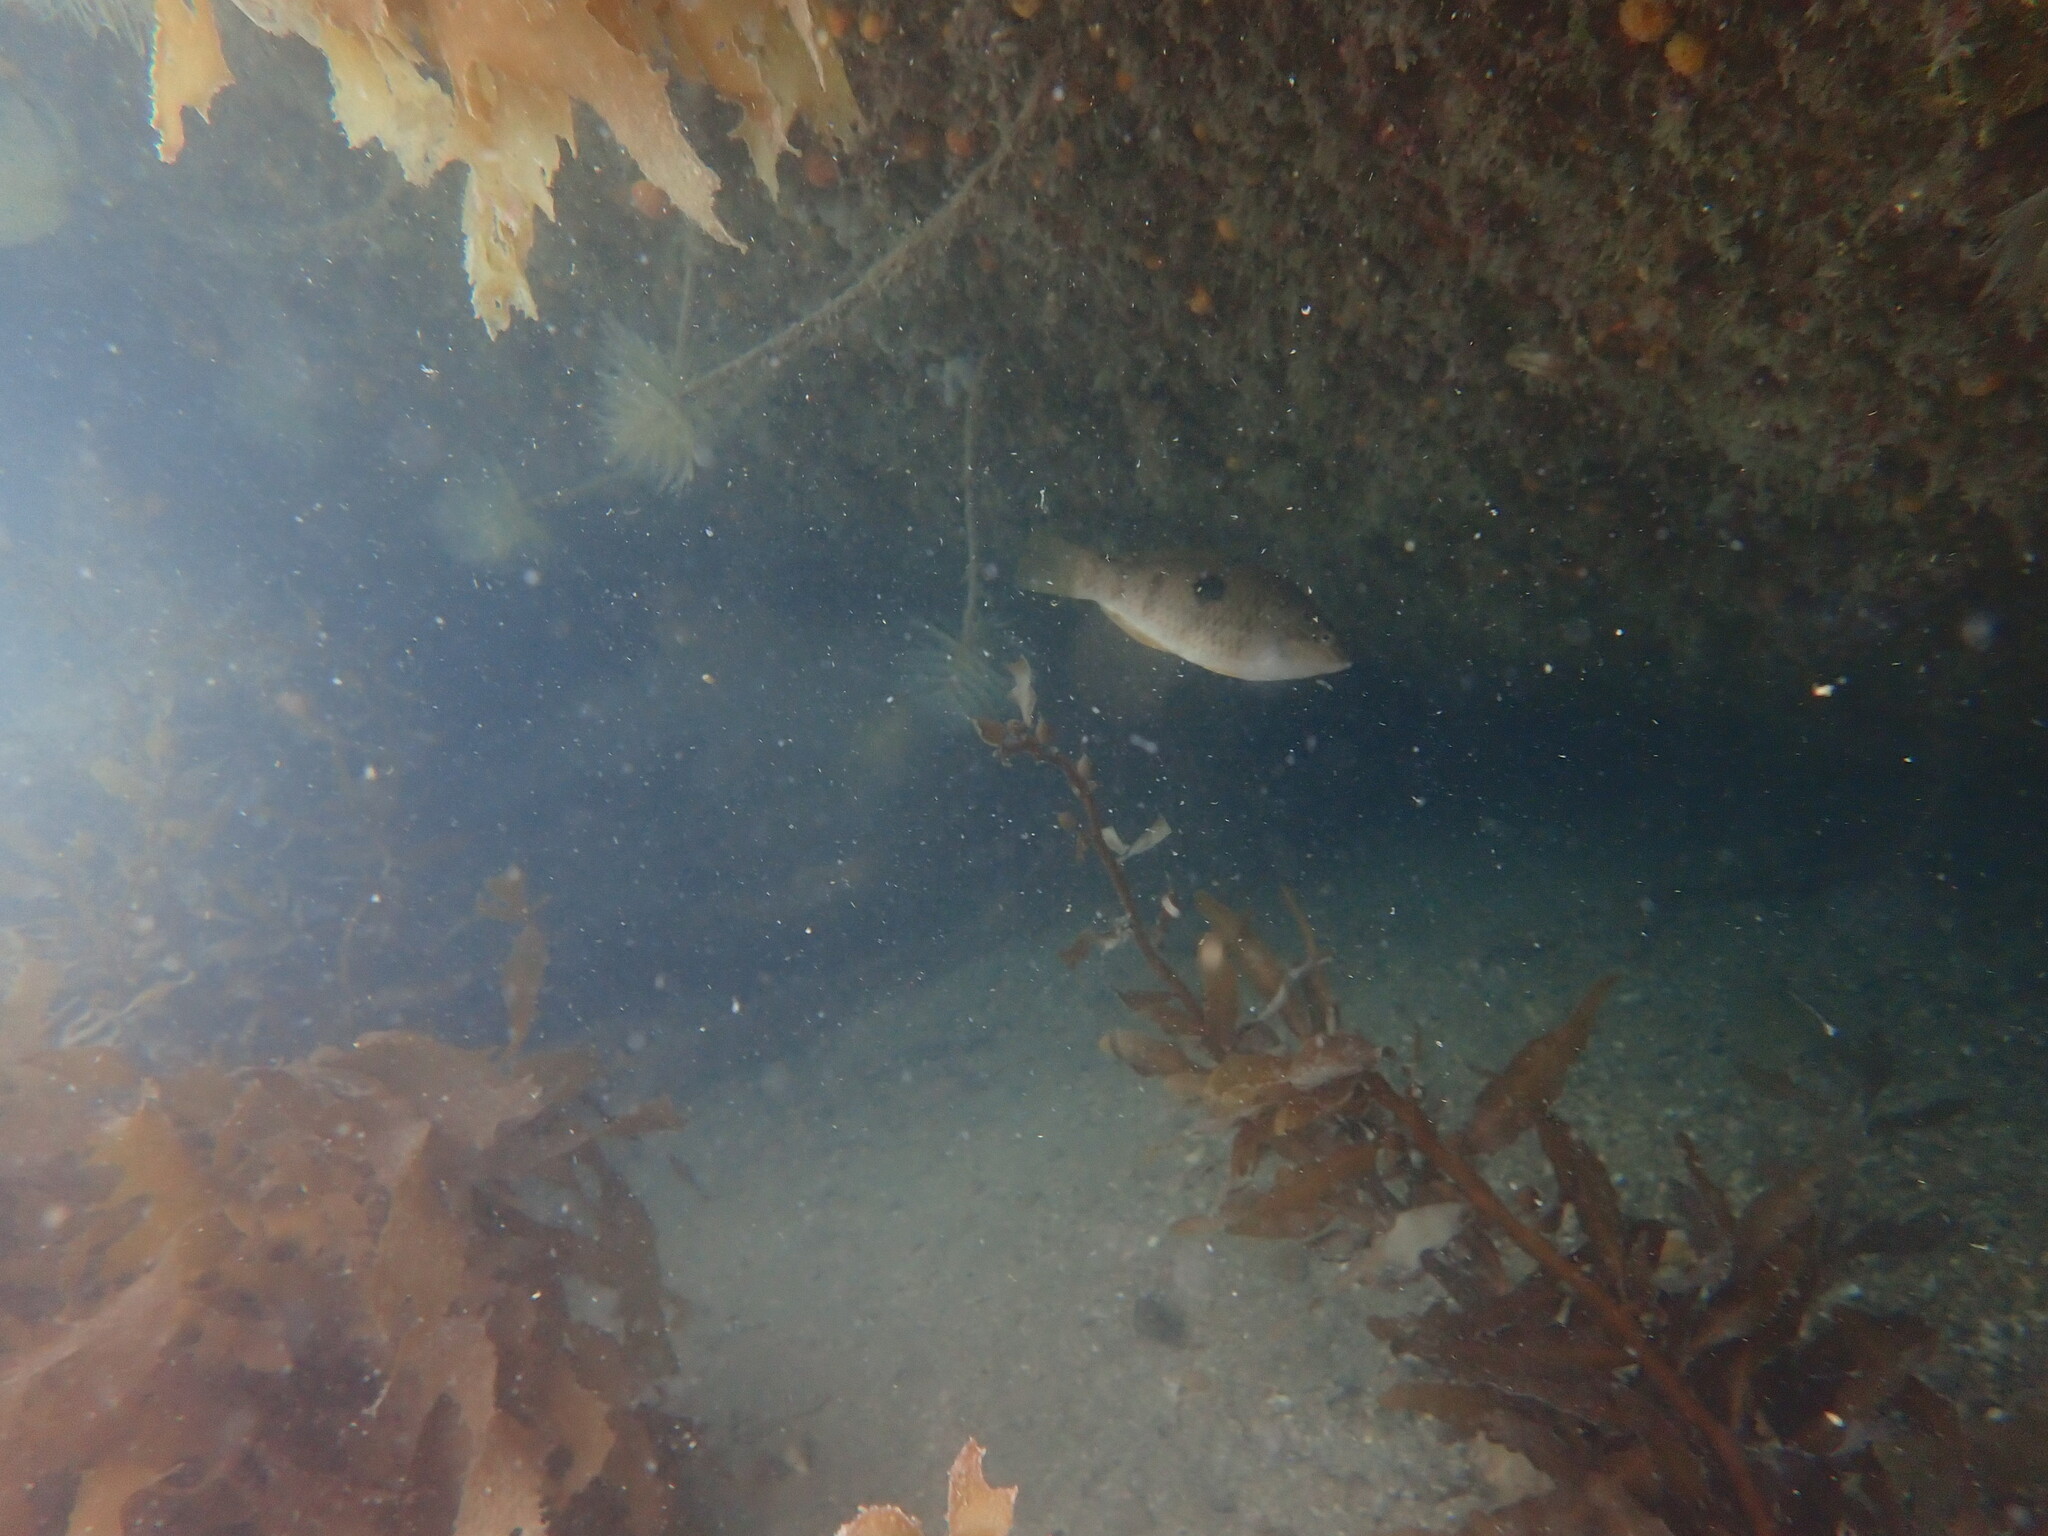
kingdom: Animalia
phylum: Chordata
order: Perciformes
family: Labridae
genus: Notolabrus
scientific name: Notolabrus celidotus
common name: Spotty
